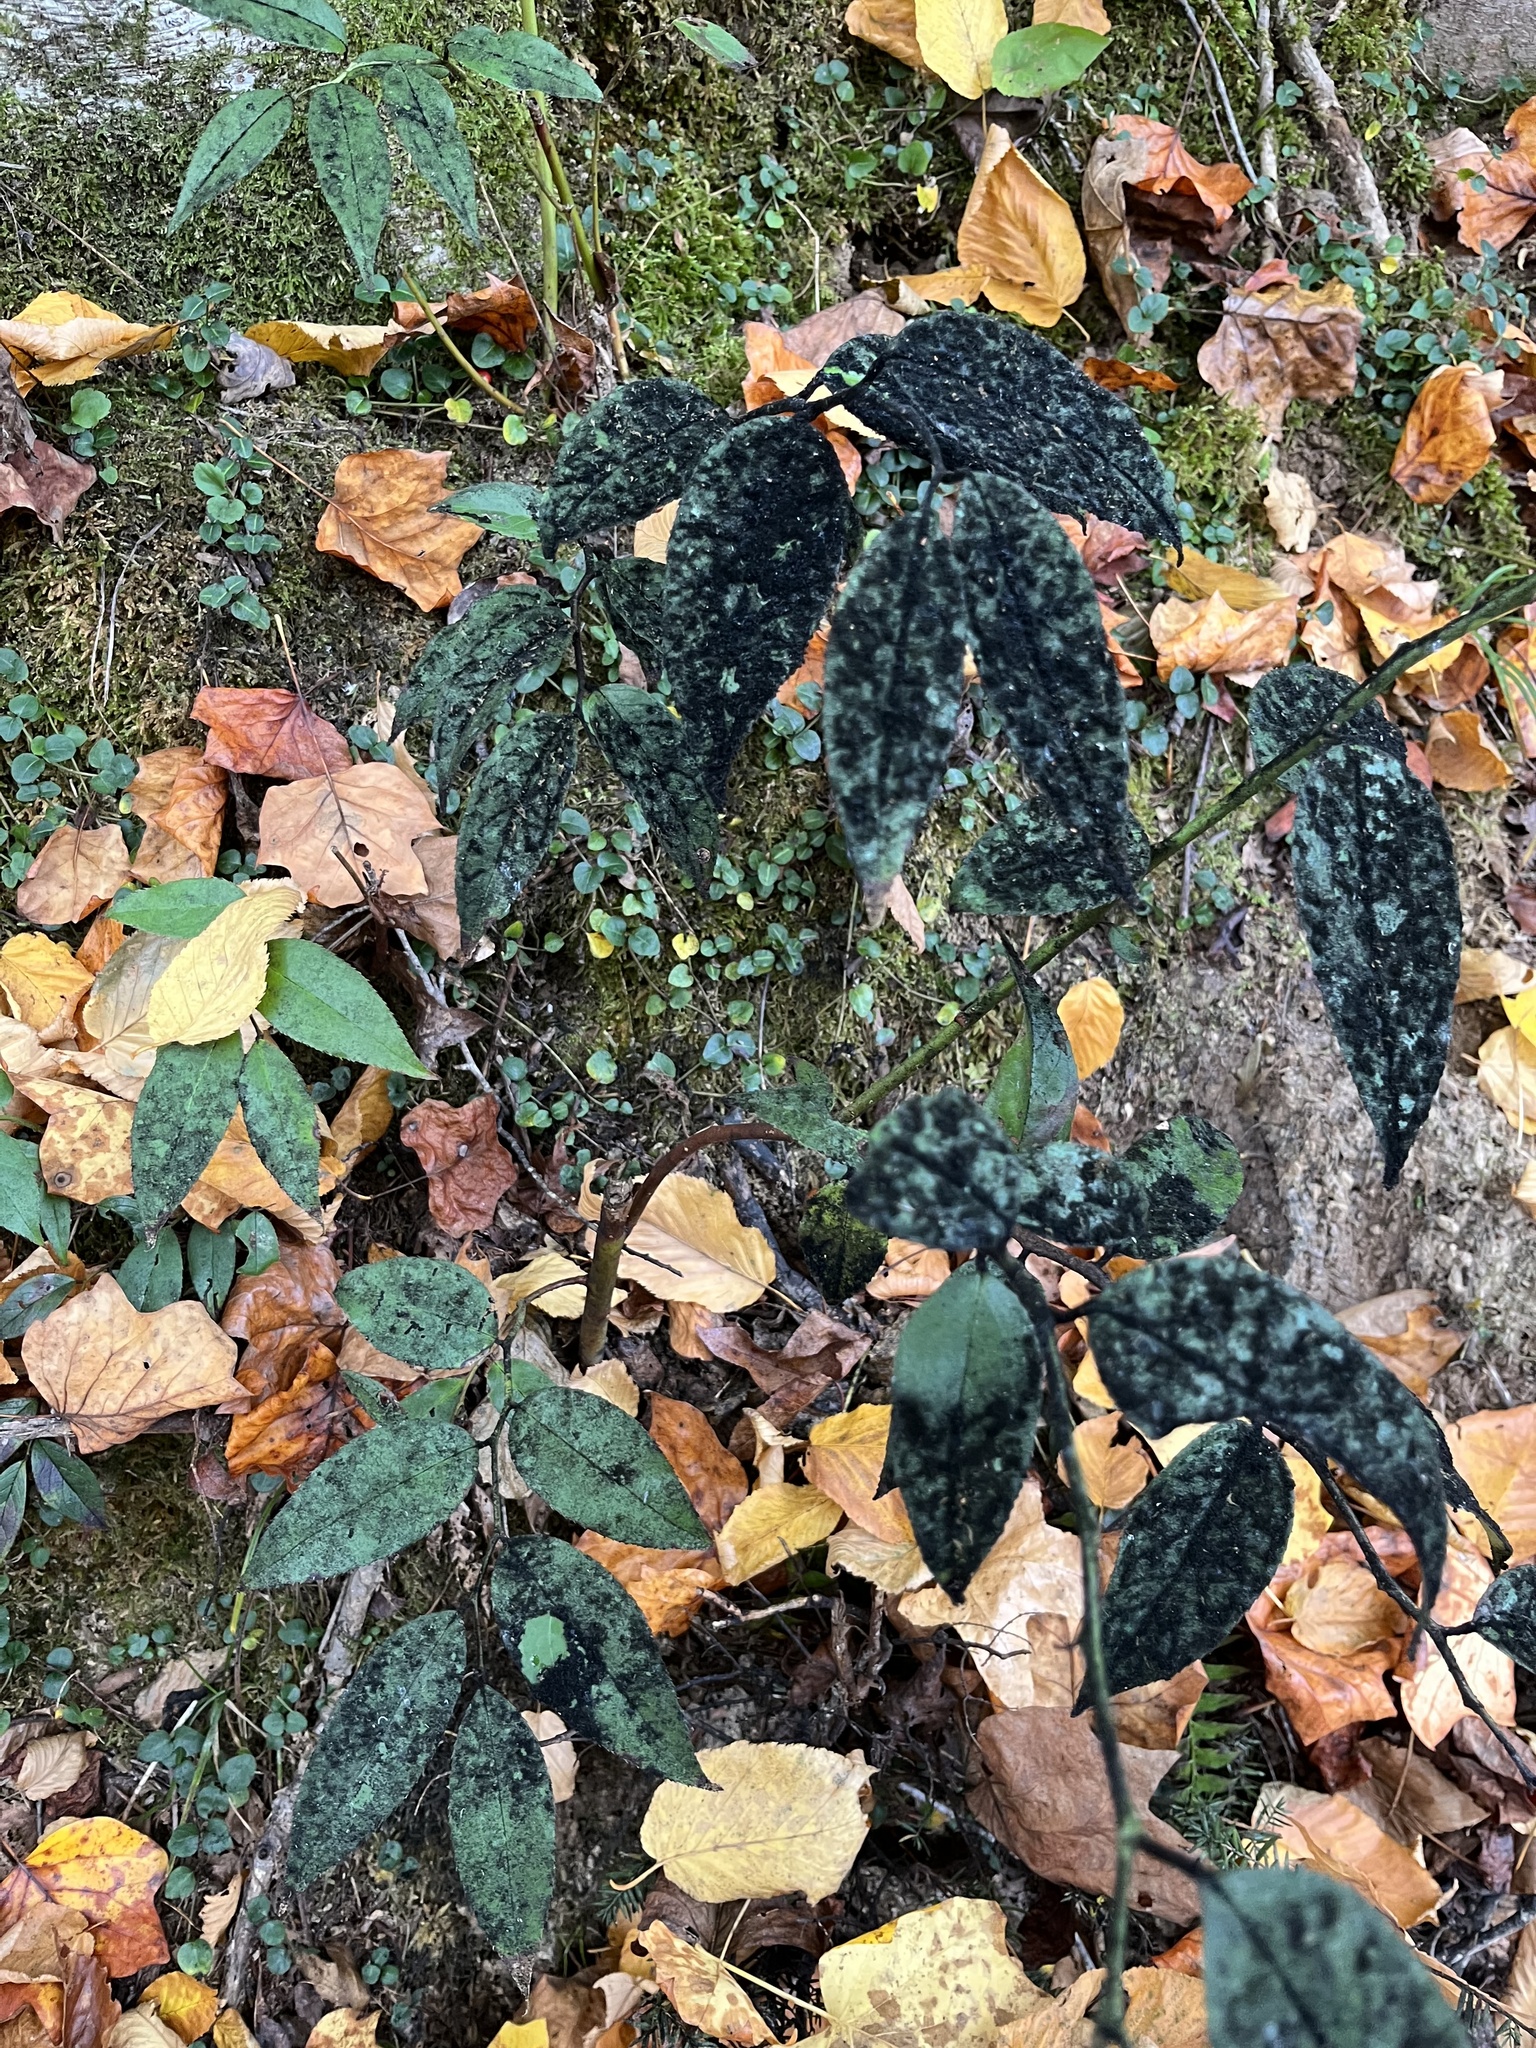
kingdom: Fungi
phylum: Ascomycota
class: Dothideomycetes
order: Capnodiales
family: Capnodiaceae
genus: Scorias
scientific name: Scorias spongiosa
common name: Black sooty mold
